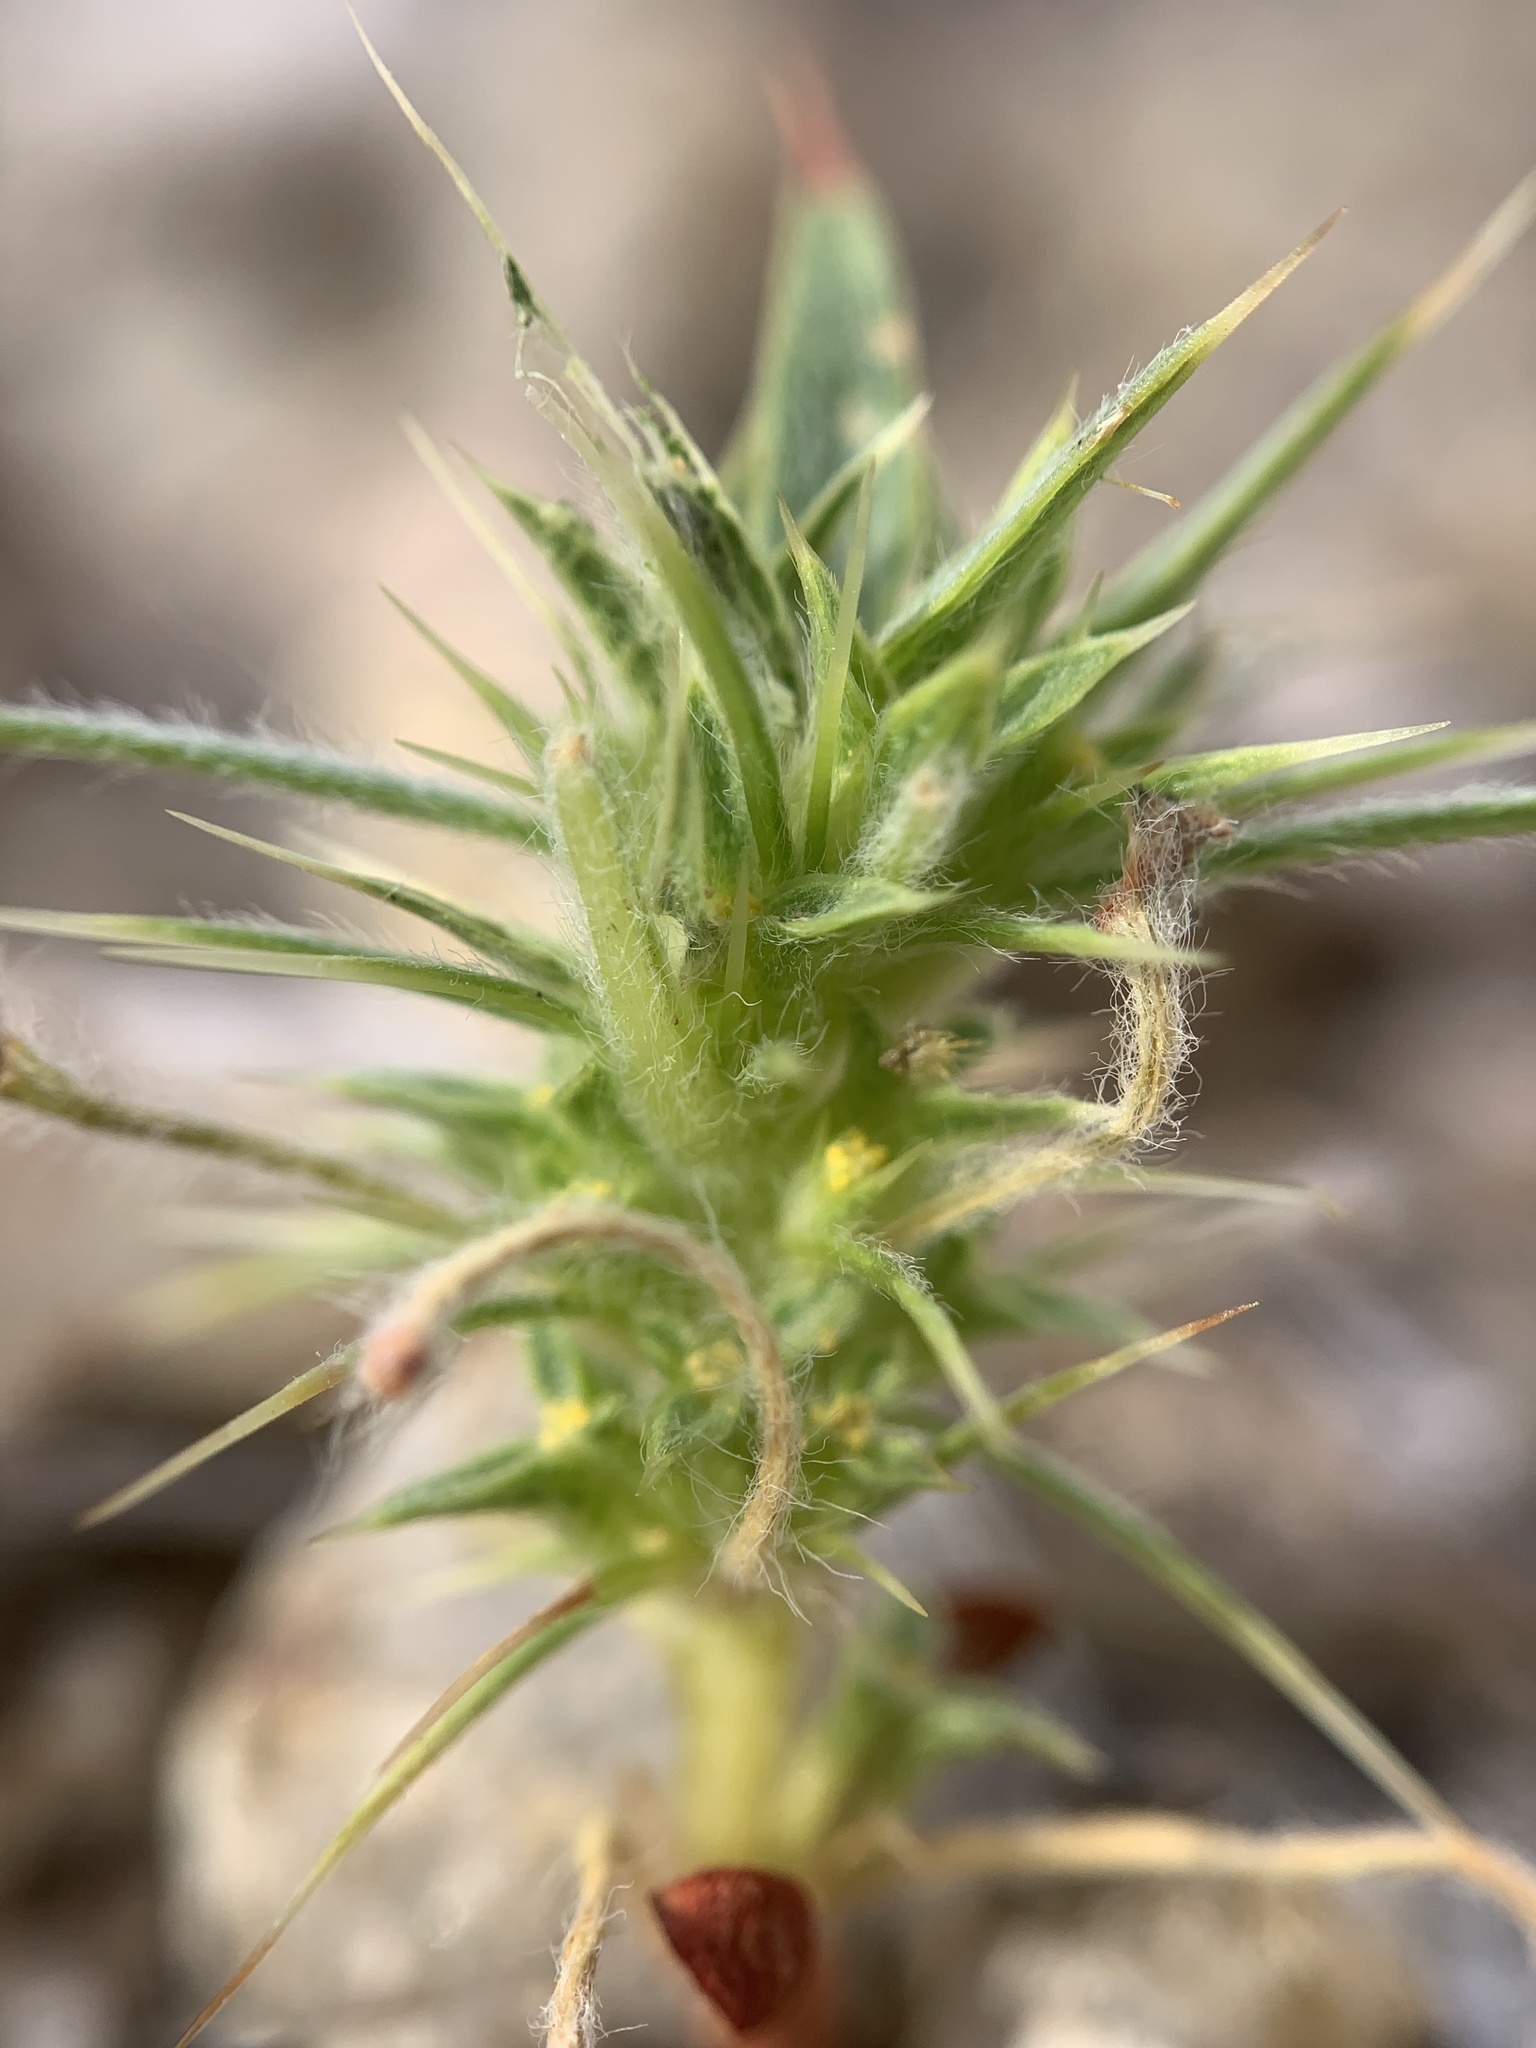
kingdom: Plantae
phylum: Tracheophyta
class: Magnoliopsida
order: Caryophyllales
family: Polygonaceae
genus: Chorizanthe
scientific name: Chorizanthe rigida
